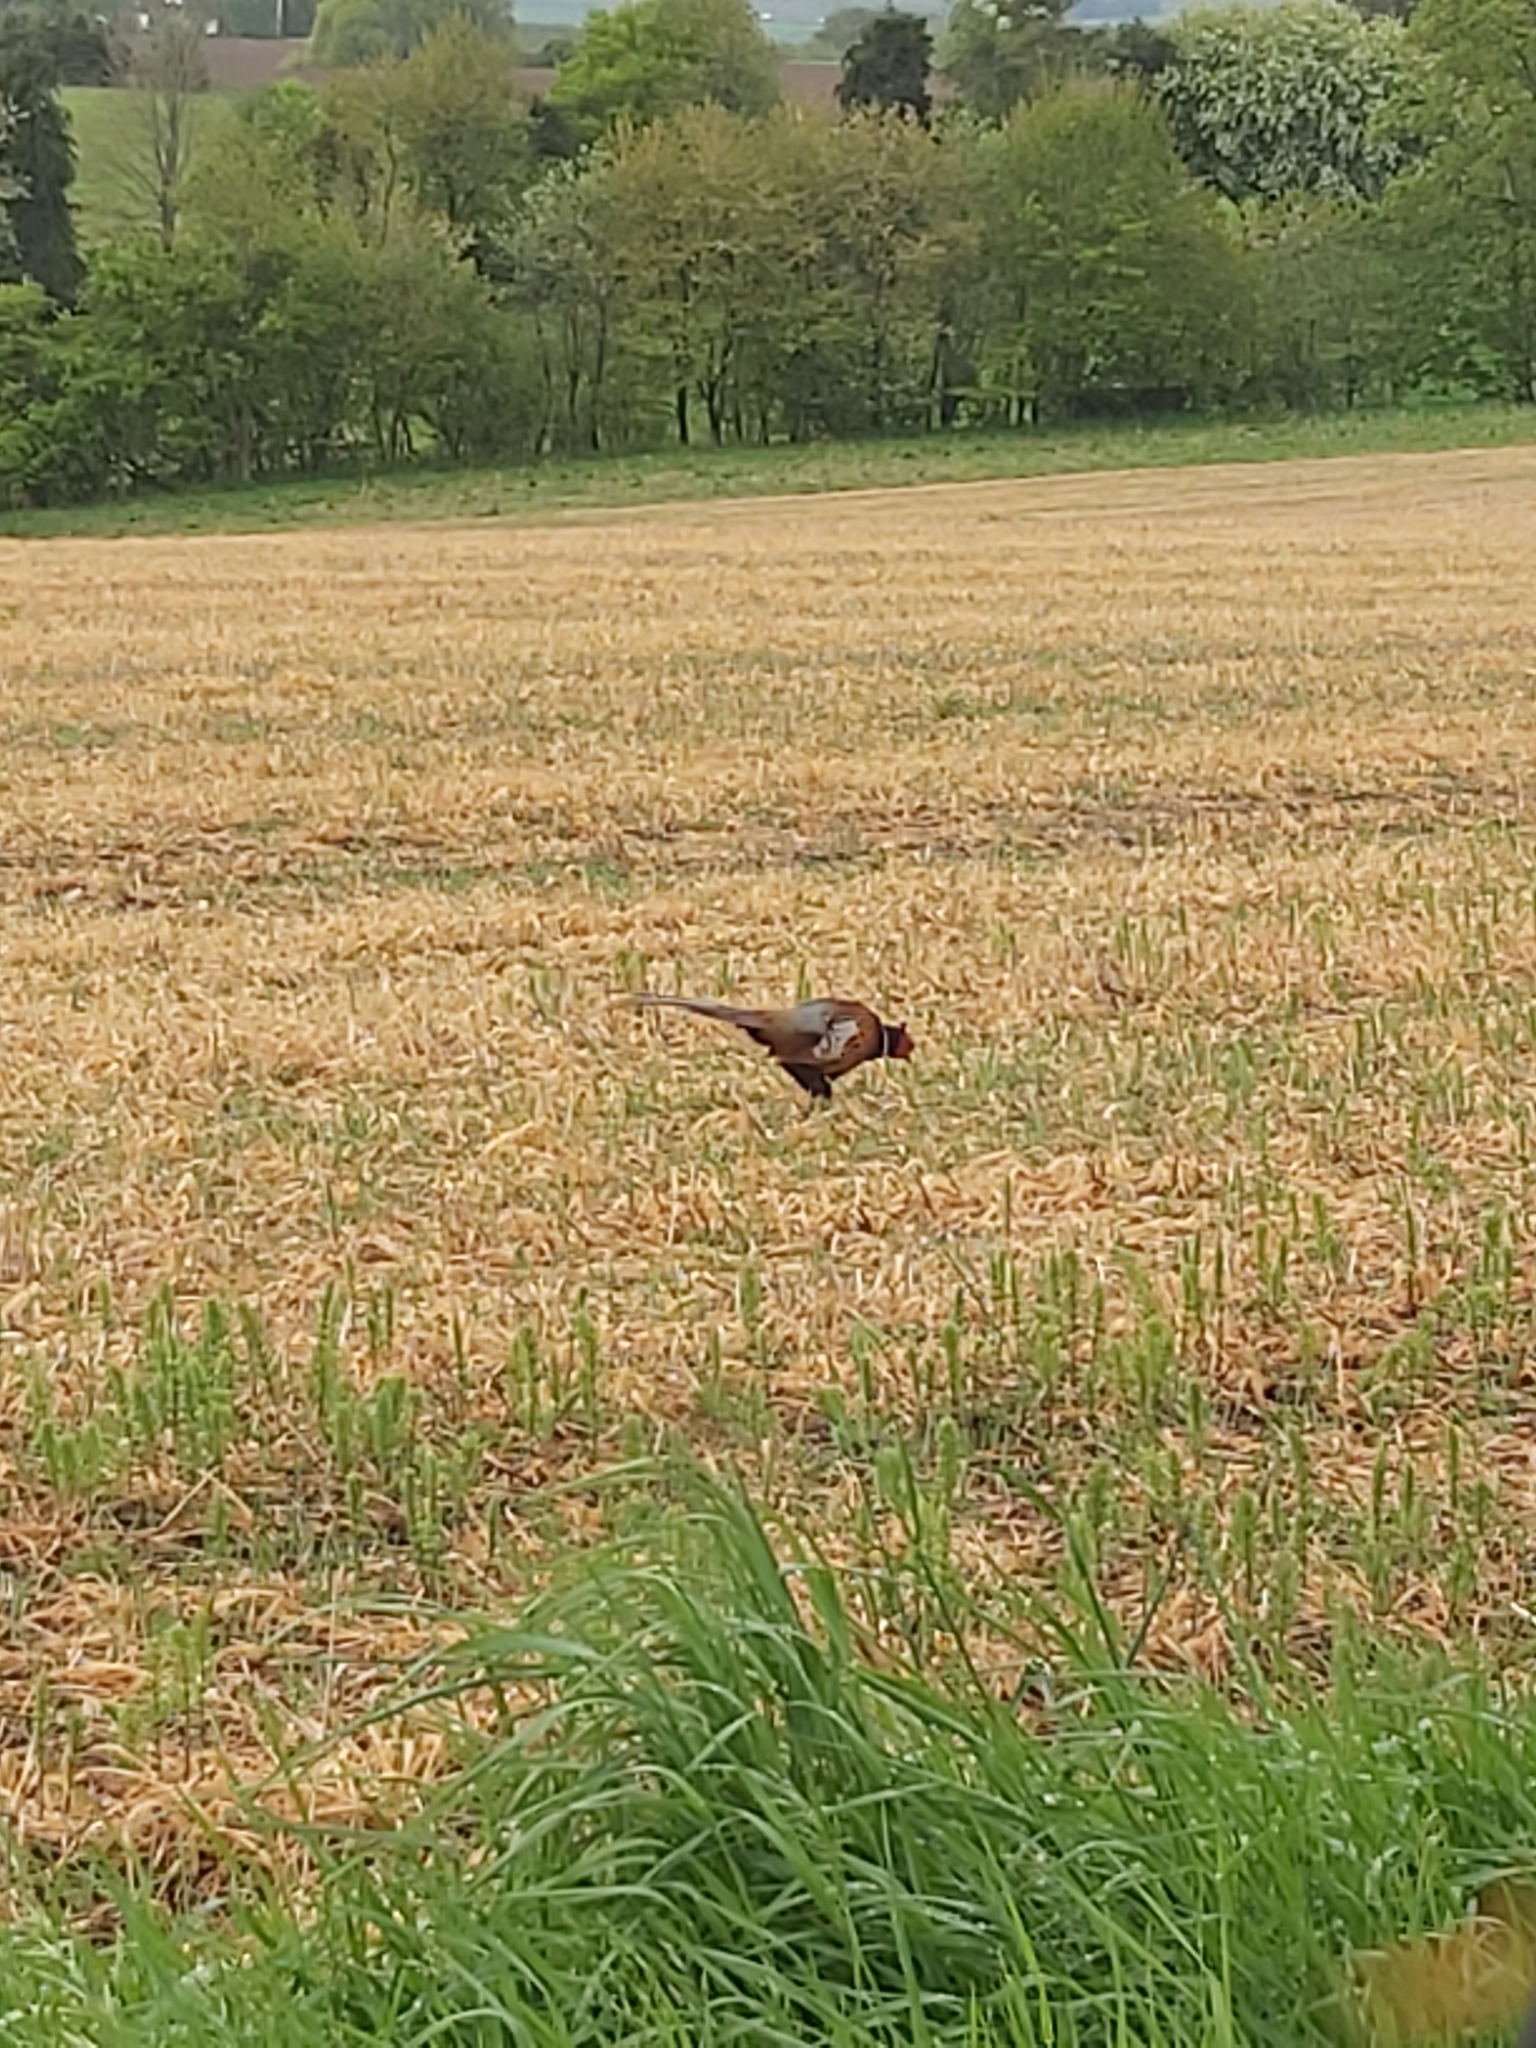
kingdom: Animalia
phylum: Chordata
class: Aves
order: Galliformes
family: Phasianidae
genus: Phasianus
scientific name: Phasianus colchicus
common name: Common pheasant
